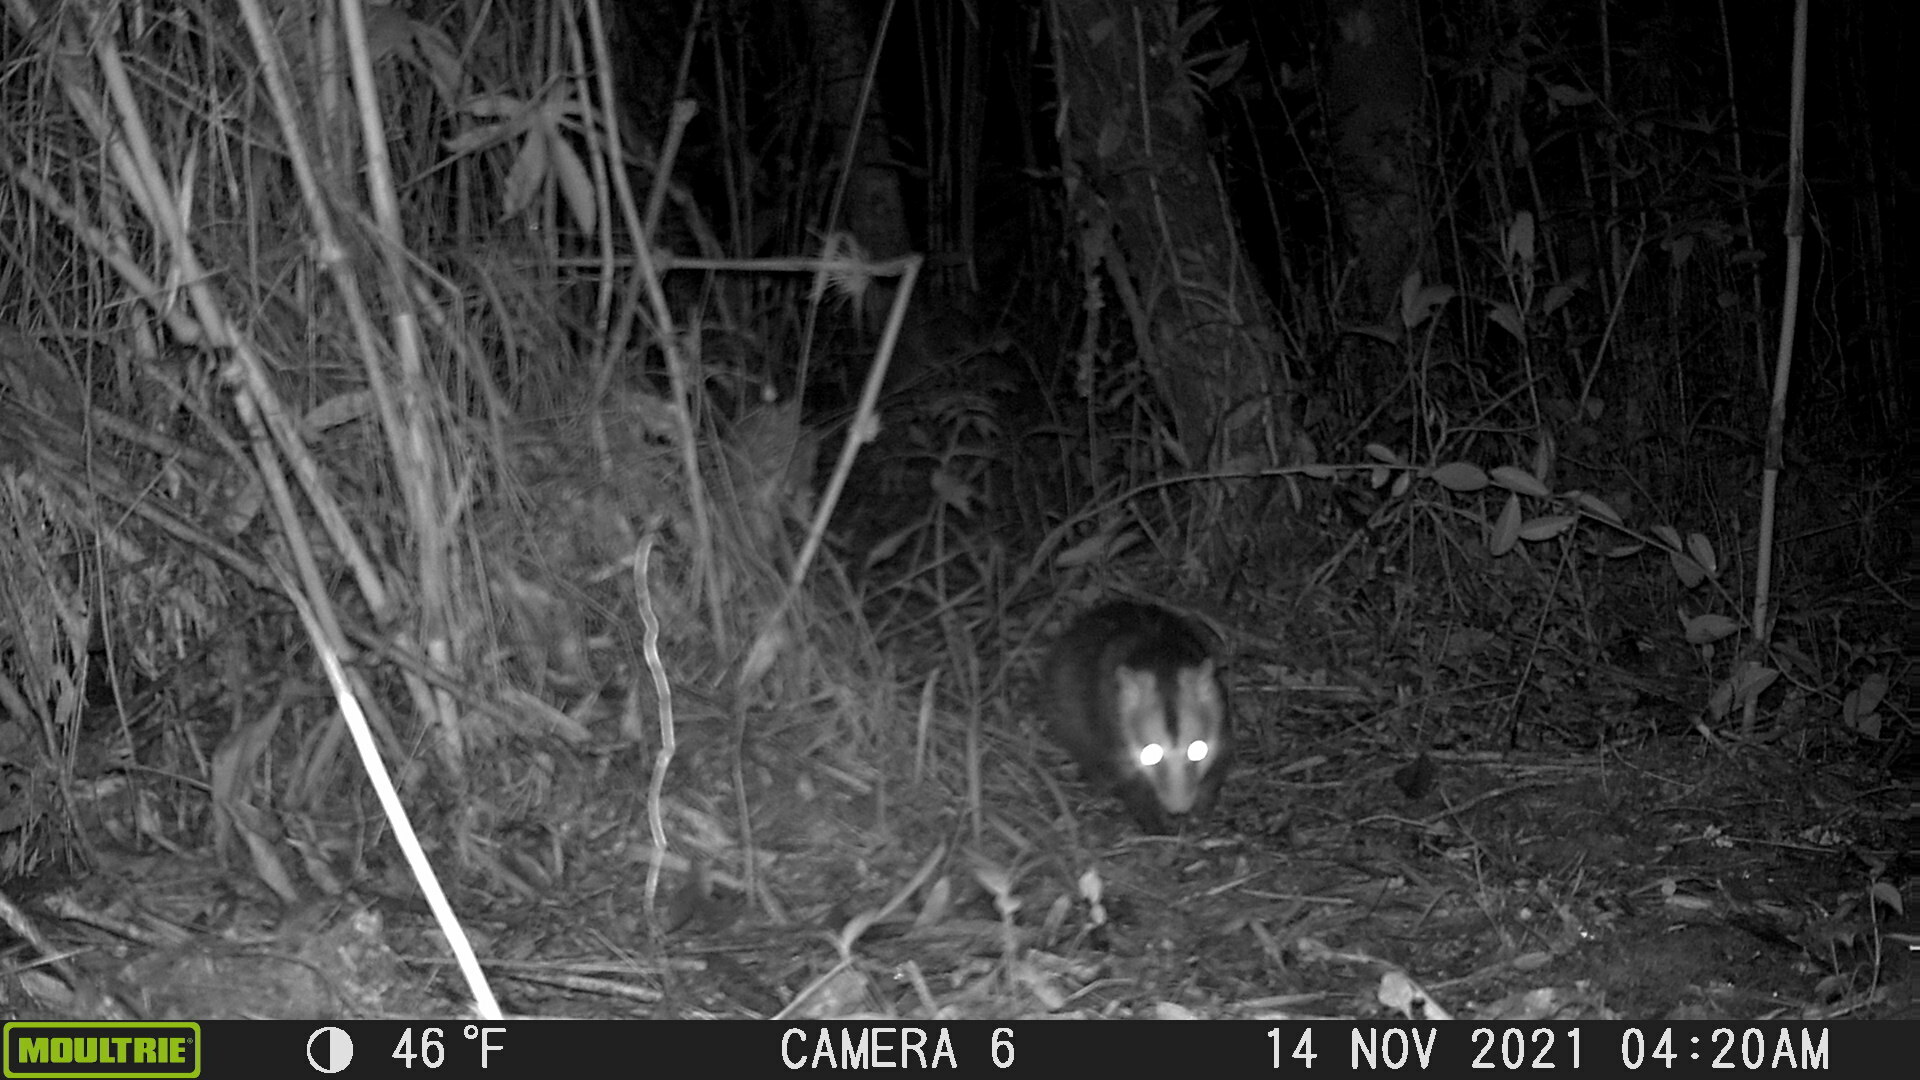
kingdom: Animalia
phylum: Chordata
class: Mammalia
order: Didelphimorphia
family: Didelphidae
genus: Didelphis
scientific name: Didelphis pernigra
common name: Andean white-eared opossum
